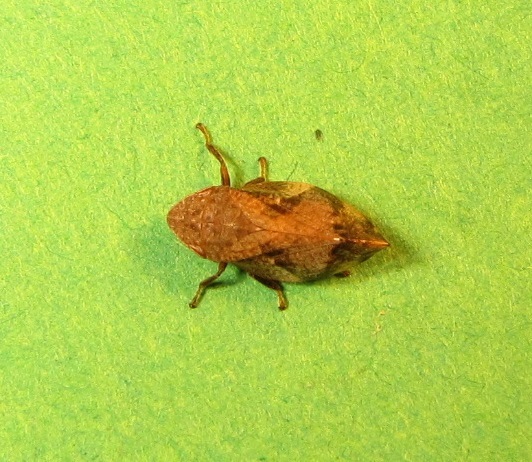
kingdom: Animalia
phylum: Arthropoda
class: Insecta
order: Hemiptera
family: Aphrophoridae
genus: Lepyronia
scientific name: Lepyronia quadrangularis
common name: Diamond-backed spittlebug
